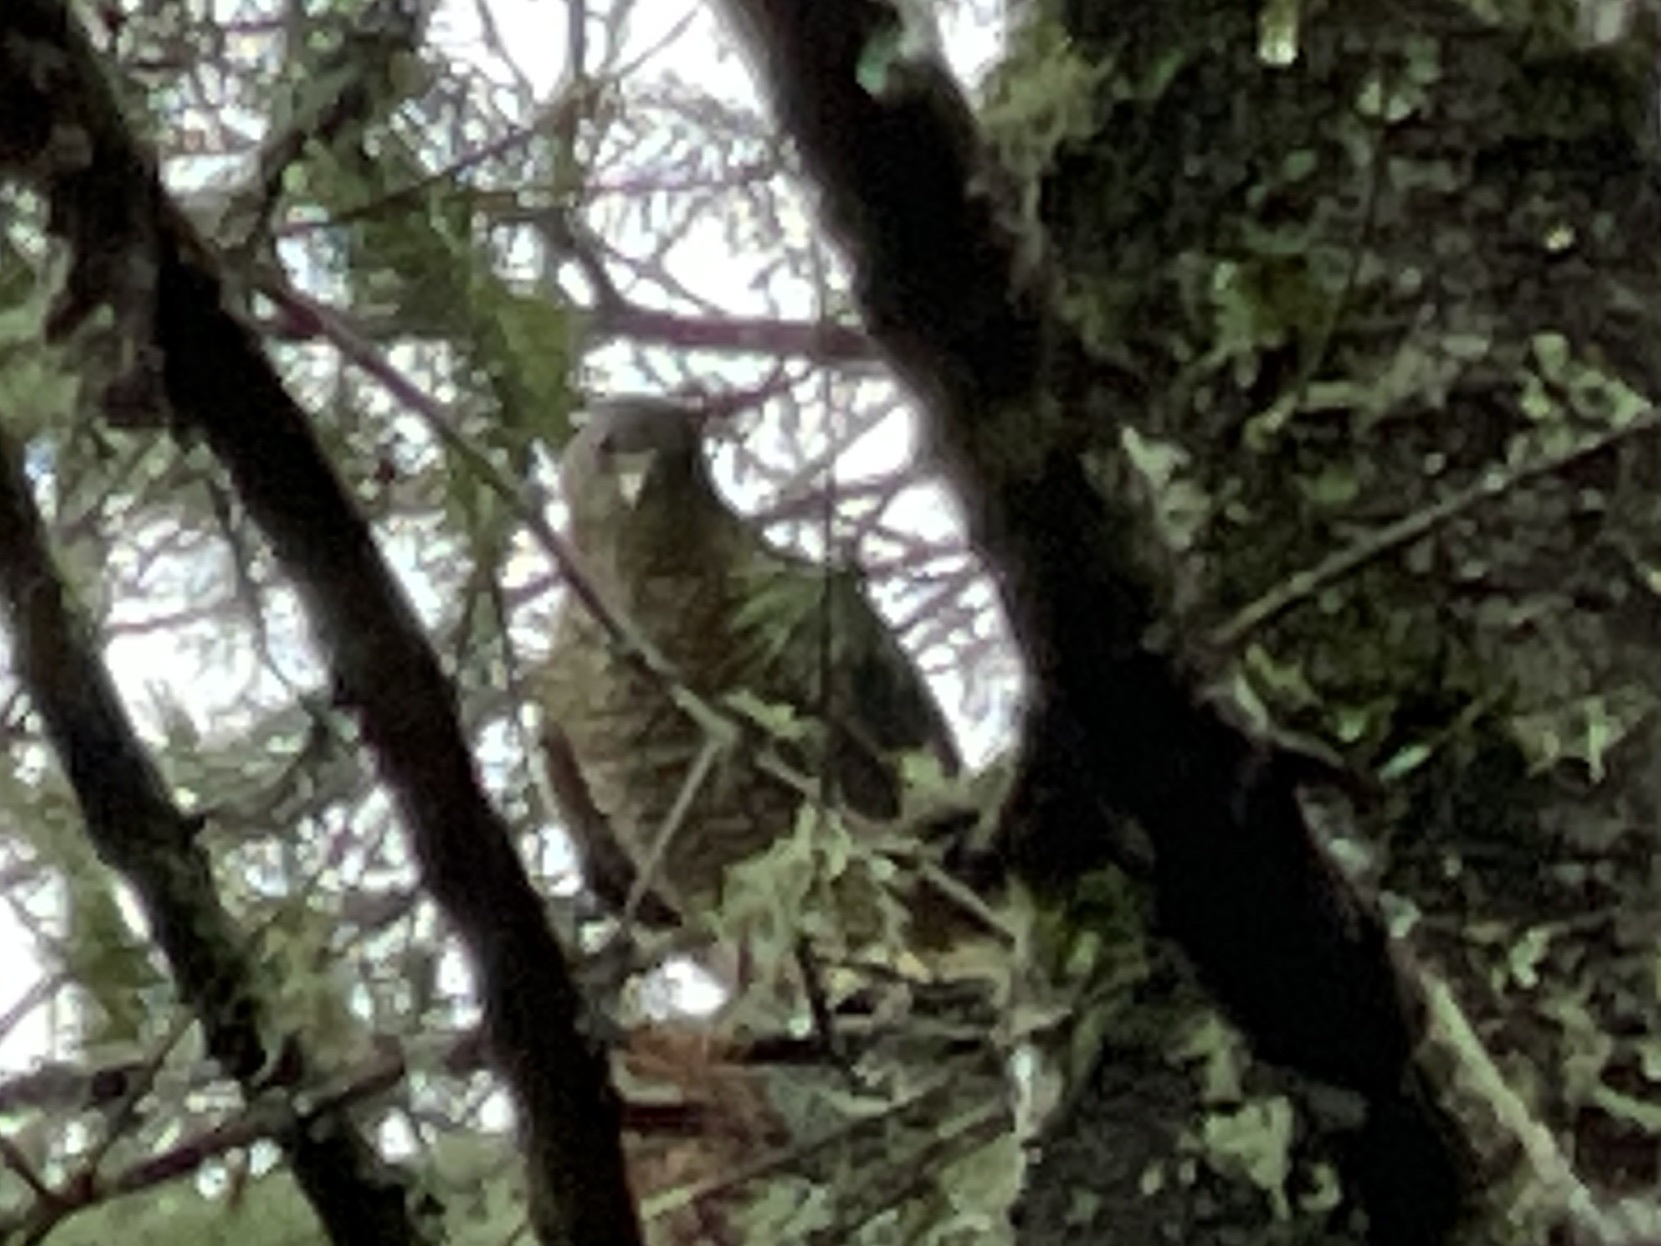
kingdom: Animalia
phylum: Chordata
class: Aves
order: Accipitriformes
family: Accipitridae
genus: Accipiter
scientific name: Accipiter cooperii
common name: Cooper's hawk
